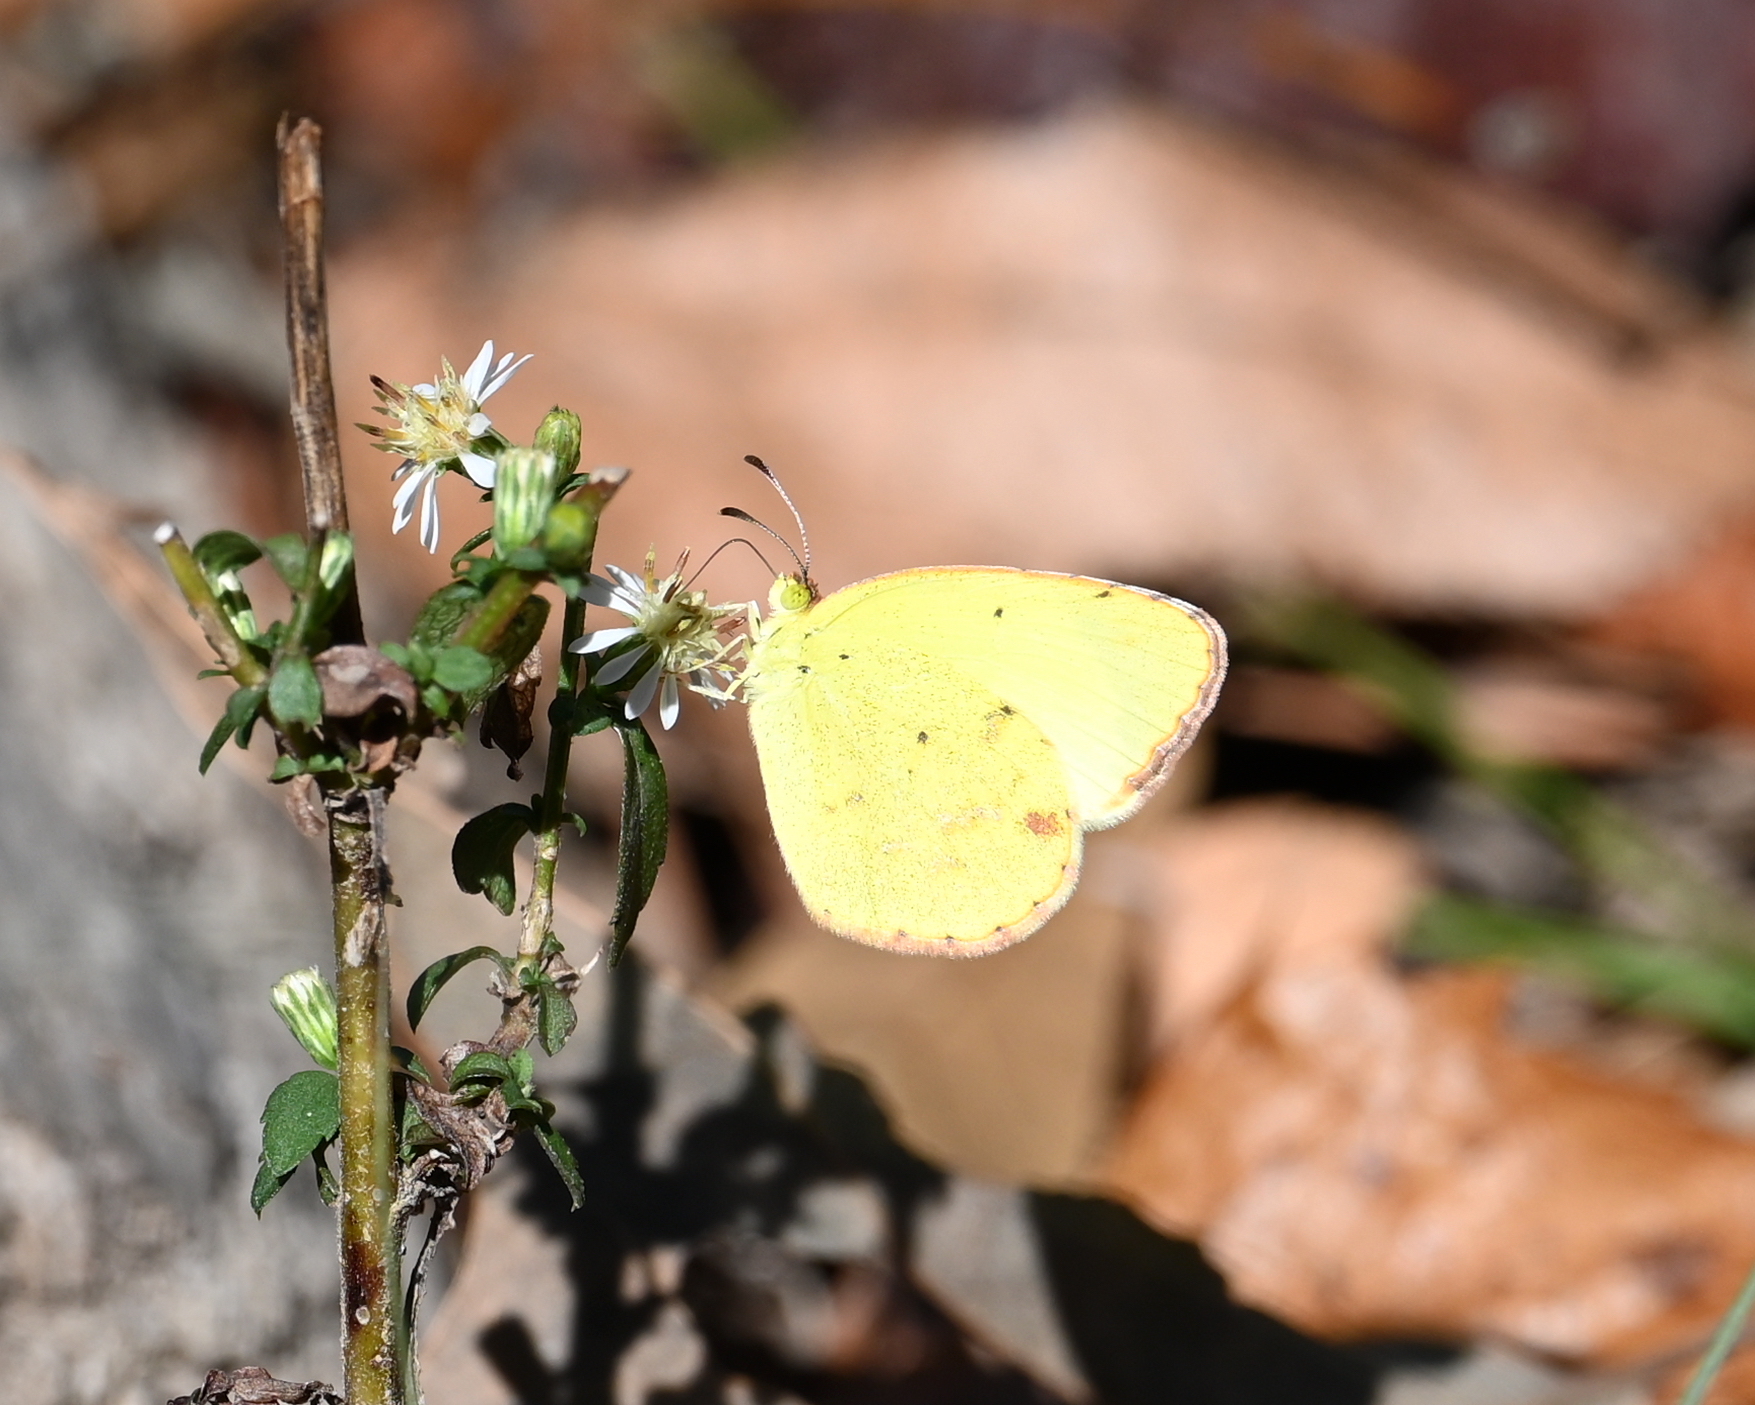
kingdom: Animalia
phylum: Arthropoda
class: Insecta
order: Lepidoptera
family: Pieridae
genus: Pyrisitia
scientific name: Pyrisitia lisa
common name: Little yellow
